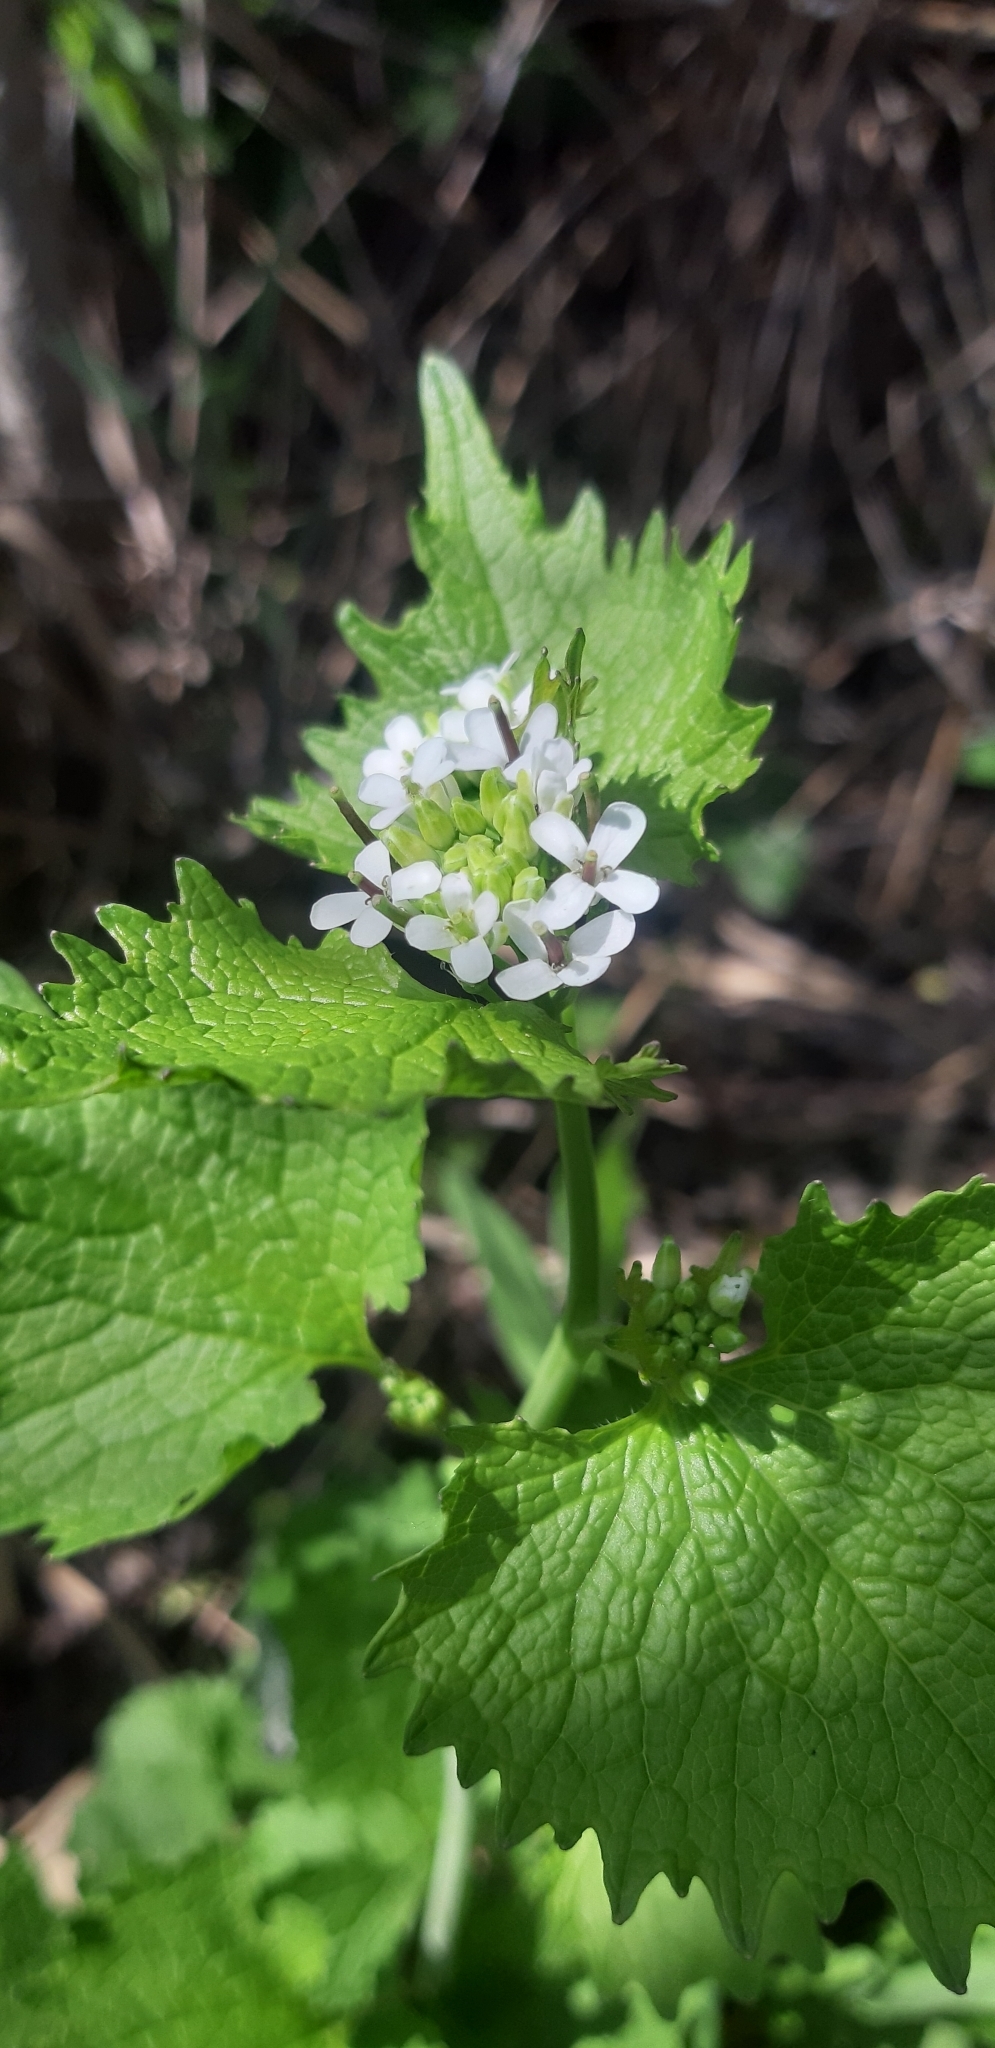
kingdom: Plantae
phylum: Tracheophyta
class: Magnoliopsida
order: Brassicales
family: Brassicaceae
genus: Alliaria
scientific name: Alliaria petiolata
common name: Garlic mustard
